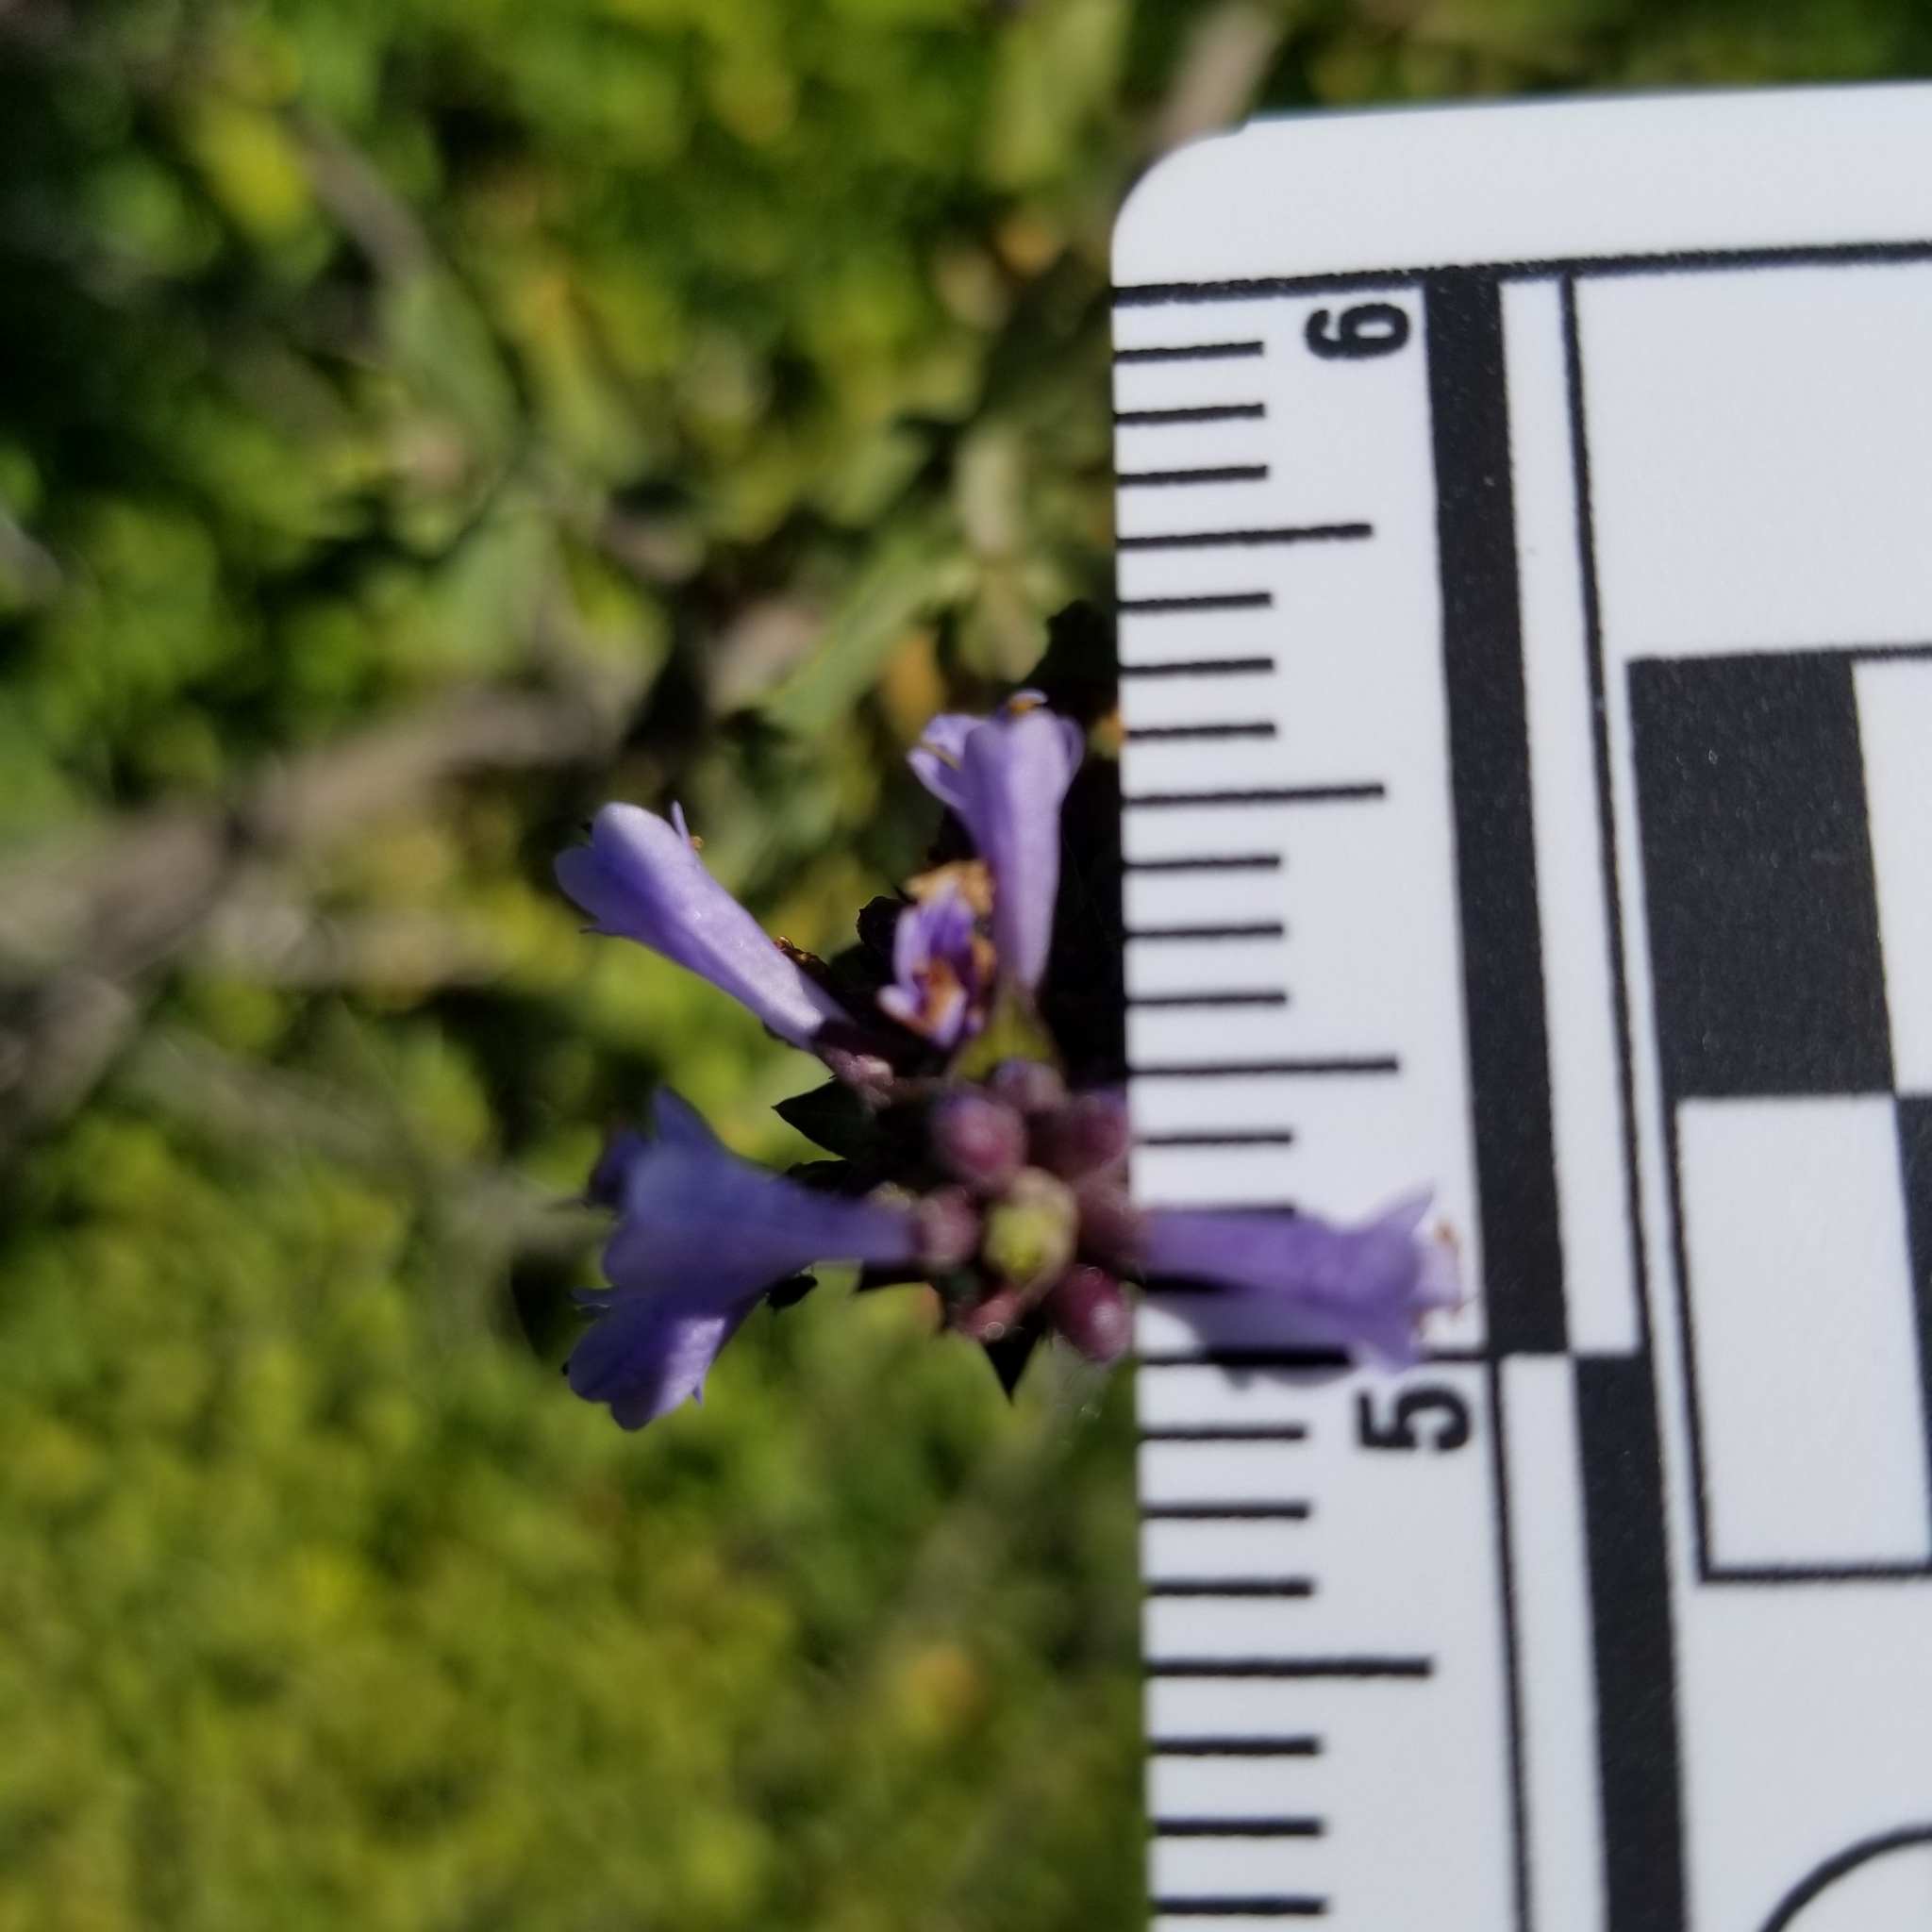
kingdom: Plantae
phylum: Tracheophyta
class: Magnoliopsida
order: Lamiales
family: Lamiaceae
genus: Salvia
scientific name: Salvia munzii
